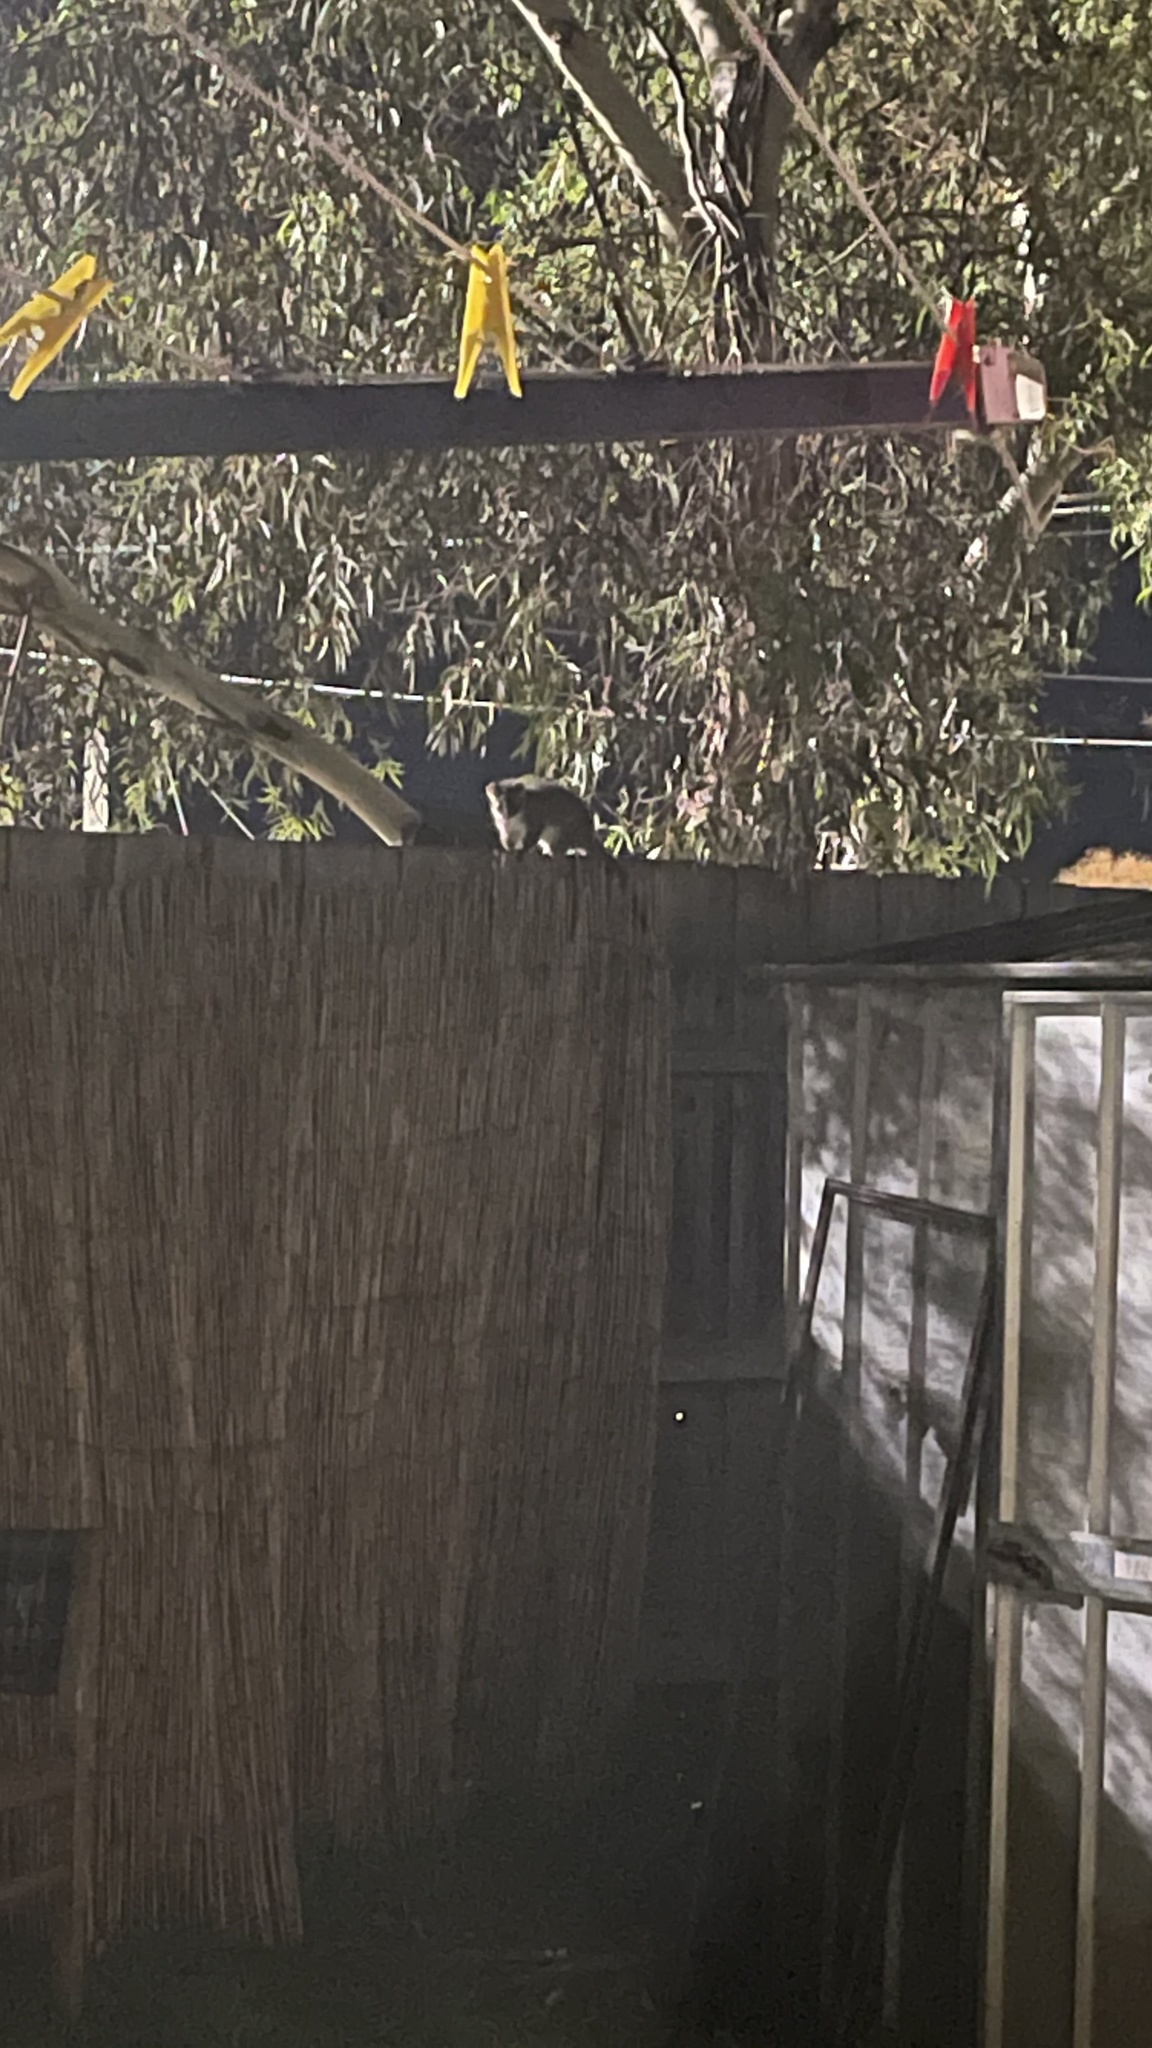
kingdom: Animalia
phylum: Chordata
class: Mammalia
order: Diprotodontia
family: Pseudocheiridae
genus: Pseudocheirus
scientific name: Pseudocheirus peregrinus
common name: Common ringtail possum
